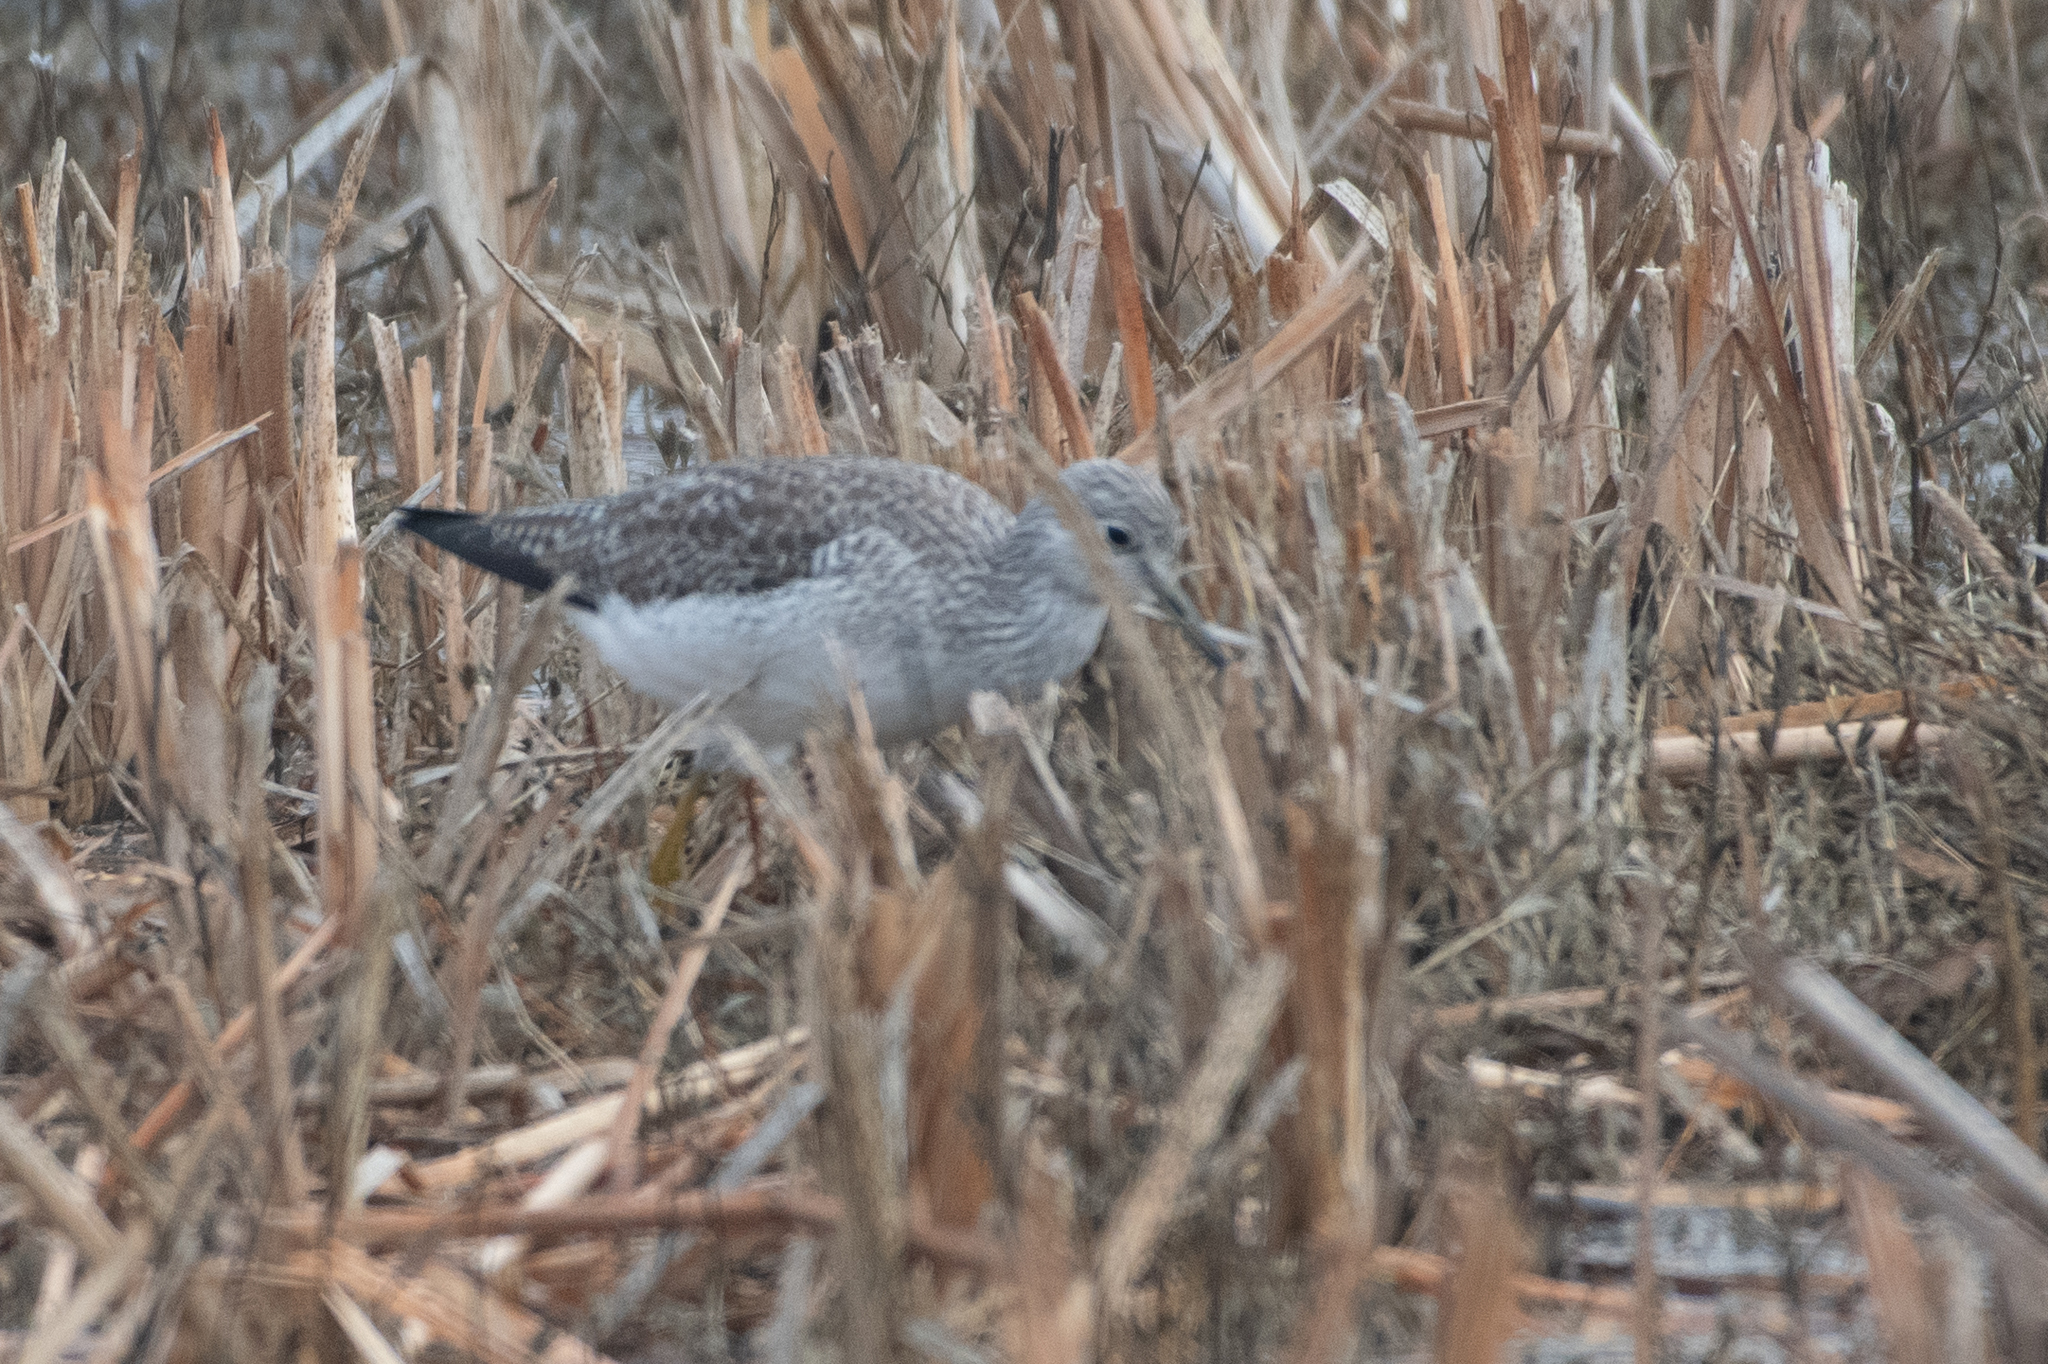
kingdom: Animalia
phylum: Chordata
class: Aves
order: Charadriiformes
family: Scolopacidae
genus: Tringa
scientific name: Tringa melanoleuca
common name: Greater yellowlegs
